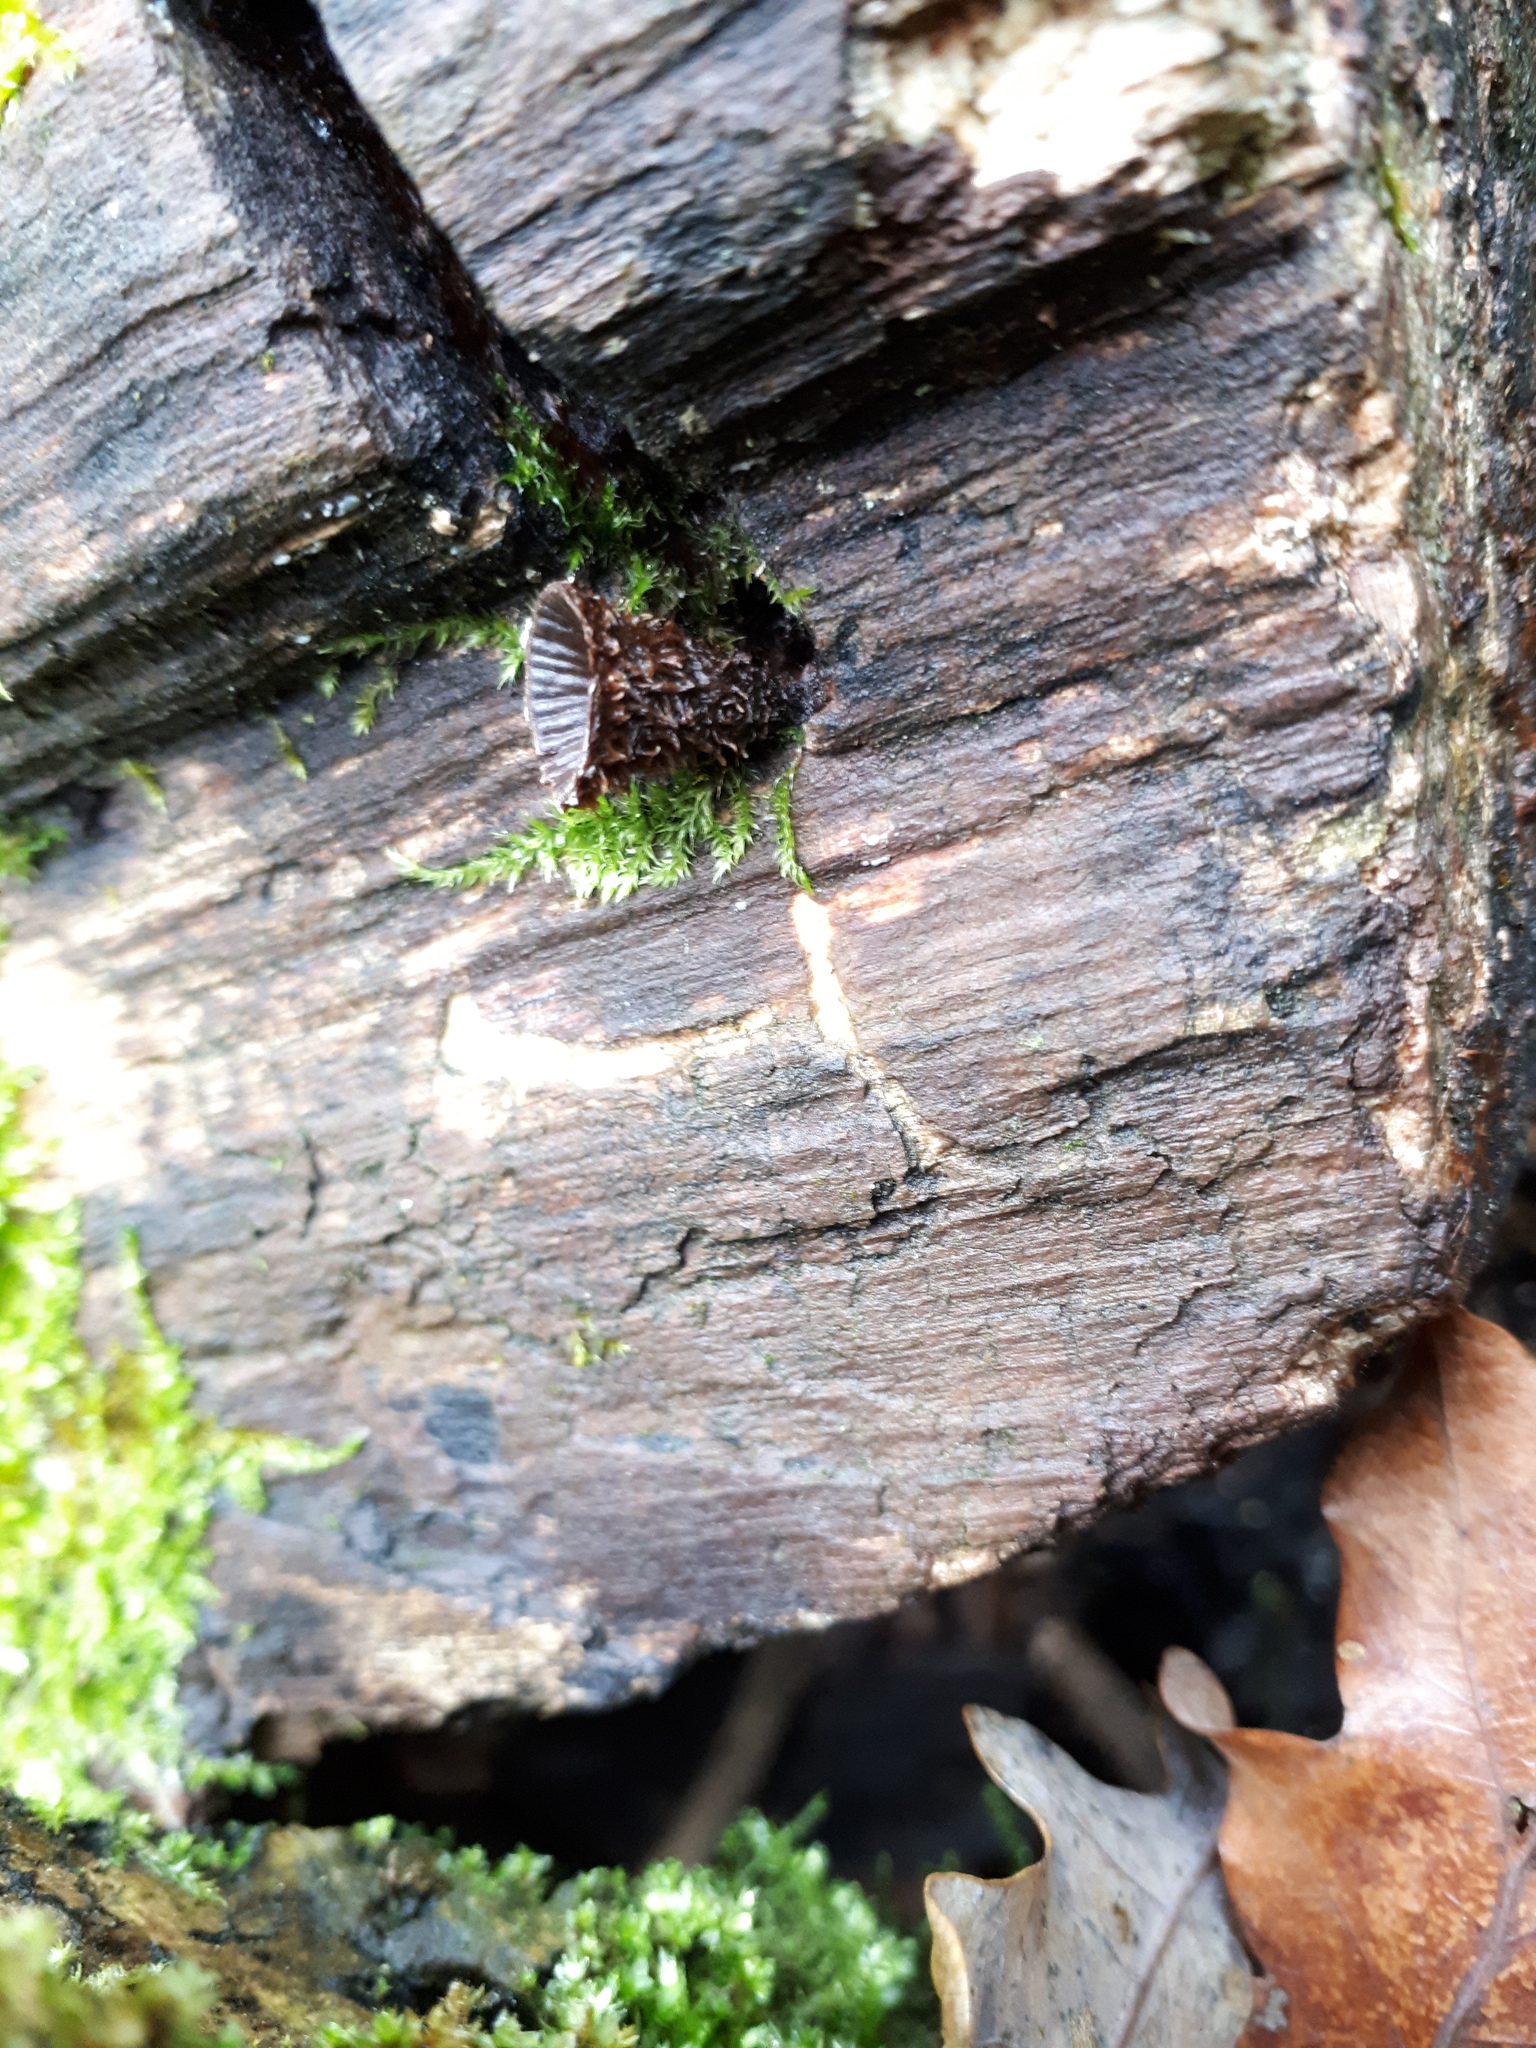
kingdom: Fungi
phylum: Basidiomycota
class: Agaricomycetes
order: Agaricales
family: Agaricaceae
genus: Cyathus
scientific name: Cyathus striatus
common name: Fluted bird's nest
